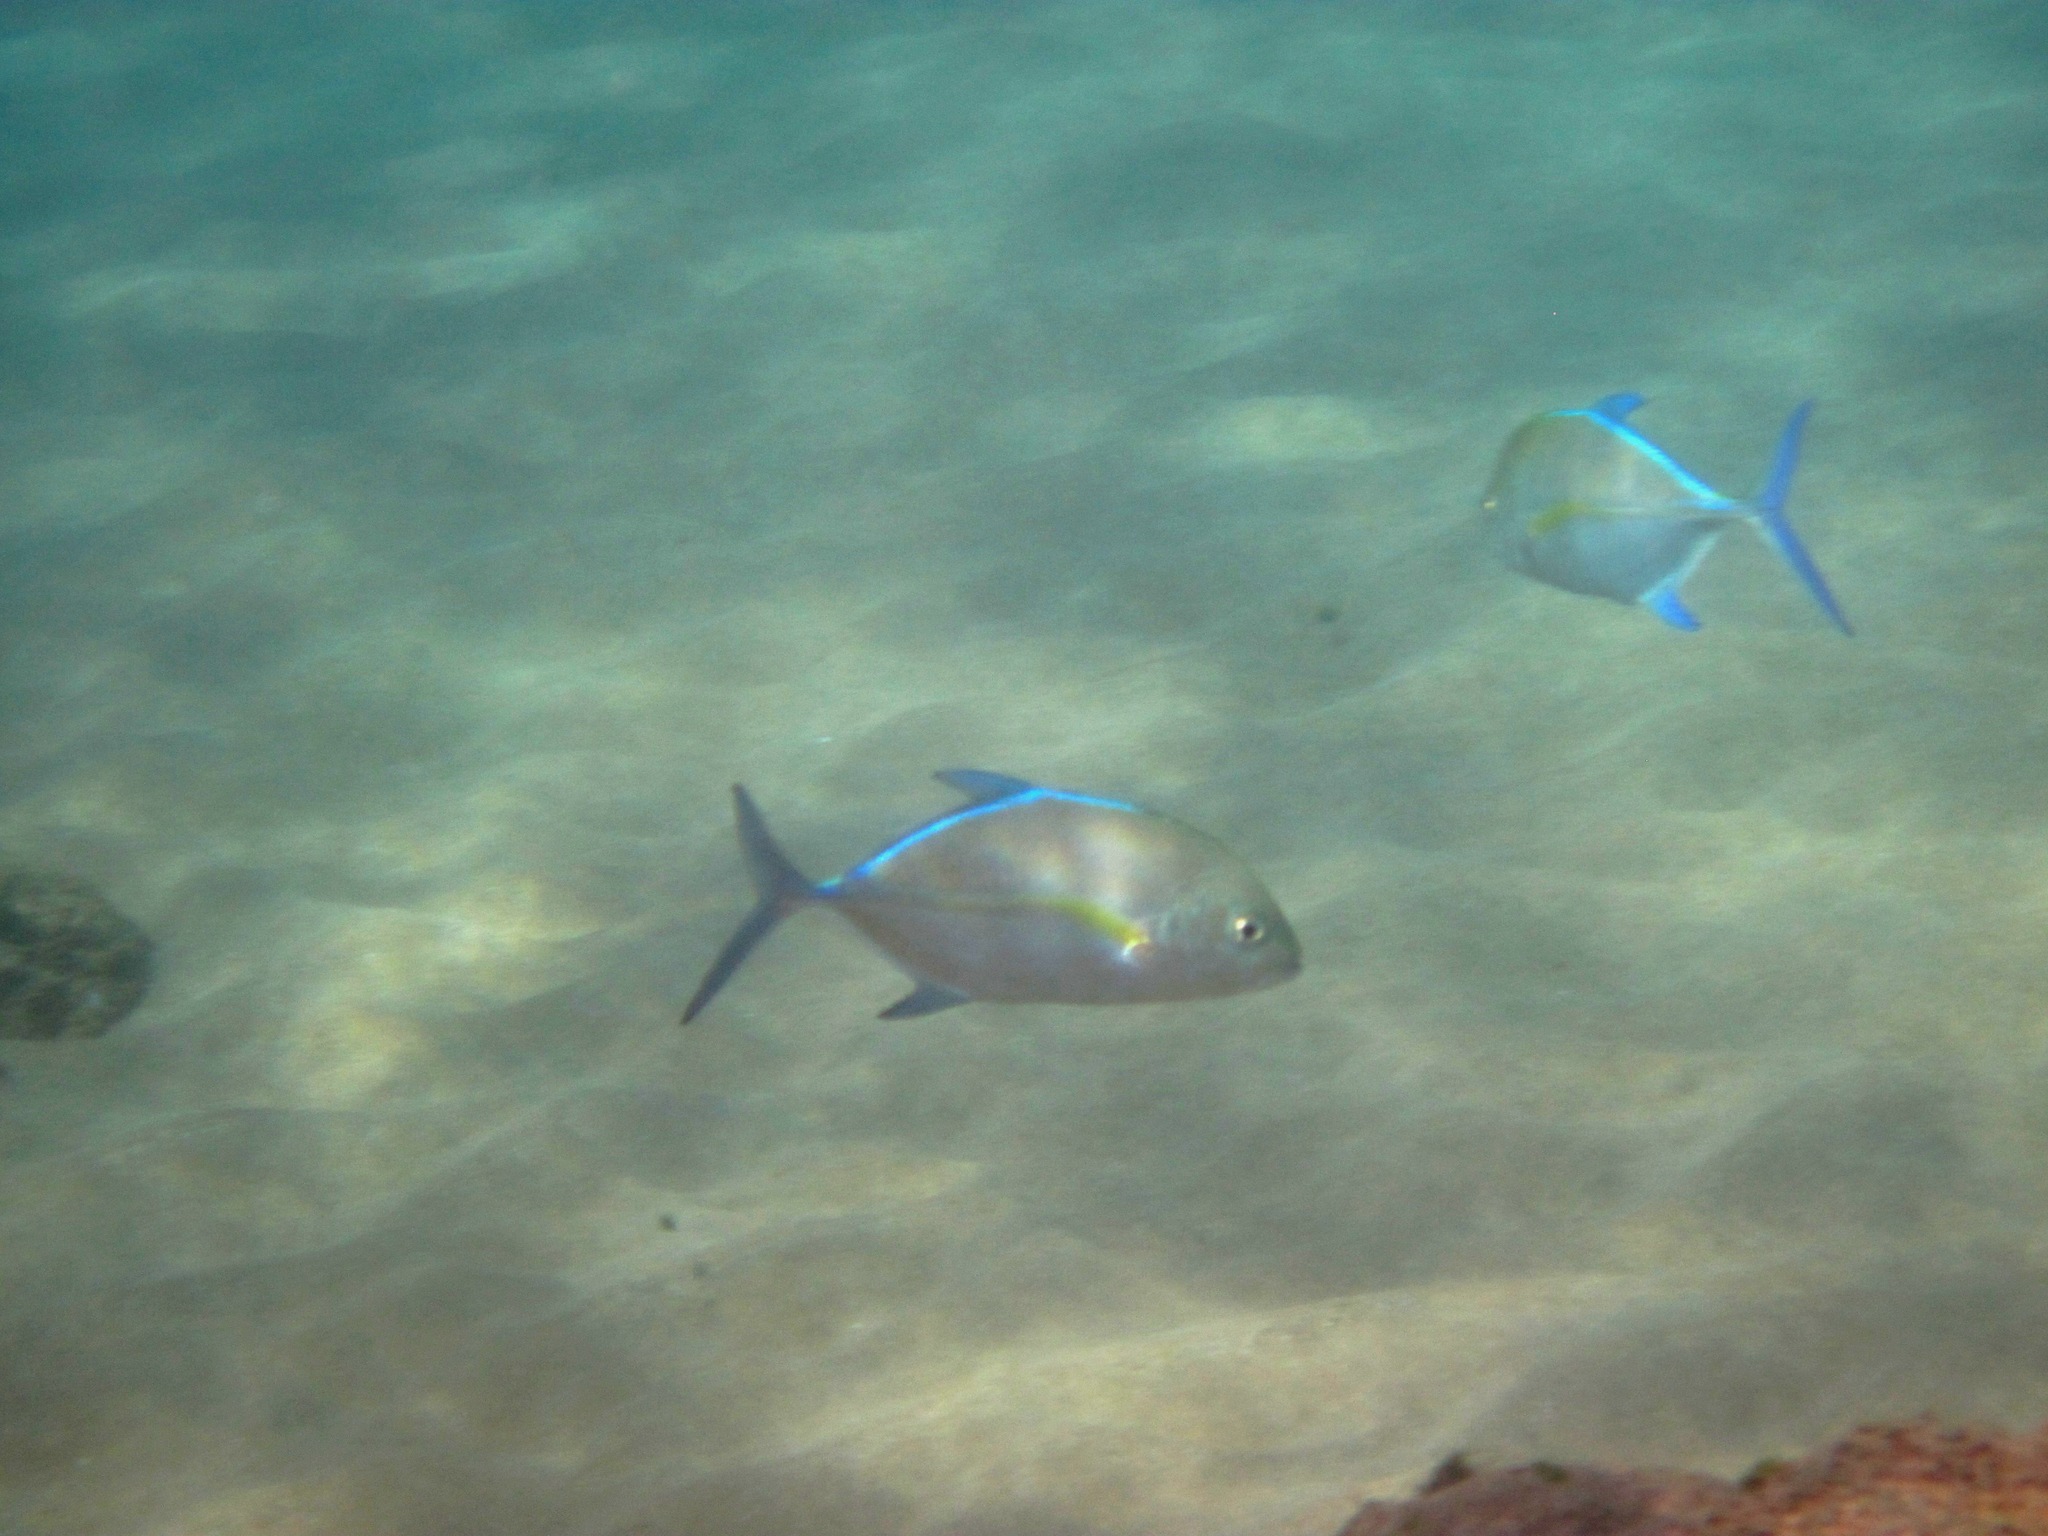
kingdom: Animalia
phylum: Chordata
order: Perciformes
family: Carangidae
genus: Caranx
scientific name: Caranx melampygus
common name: Bluefin trevally
